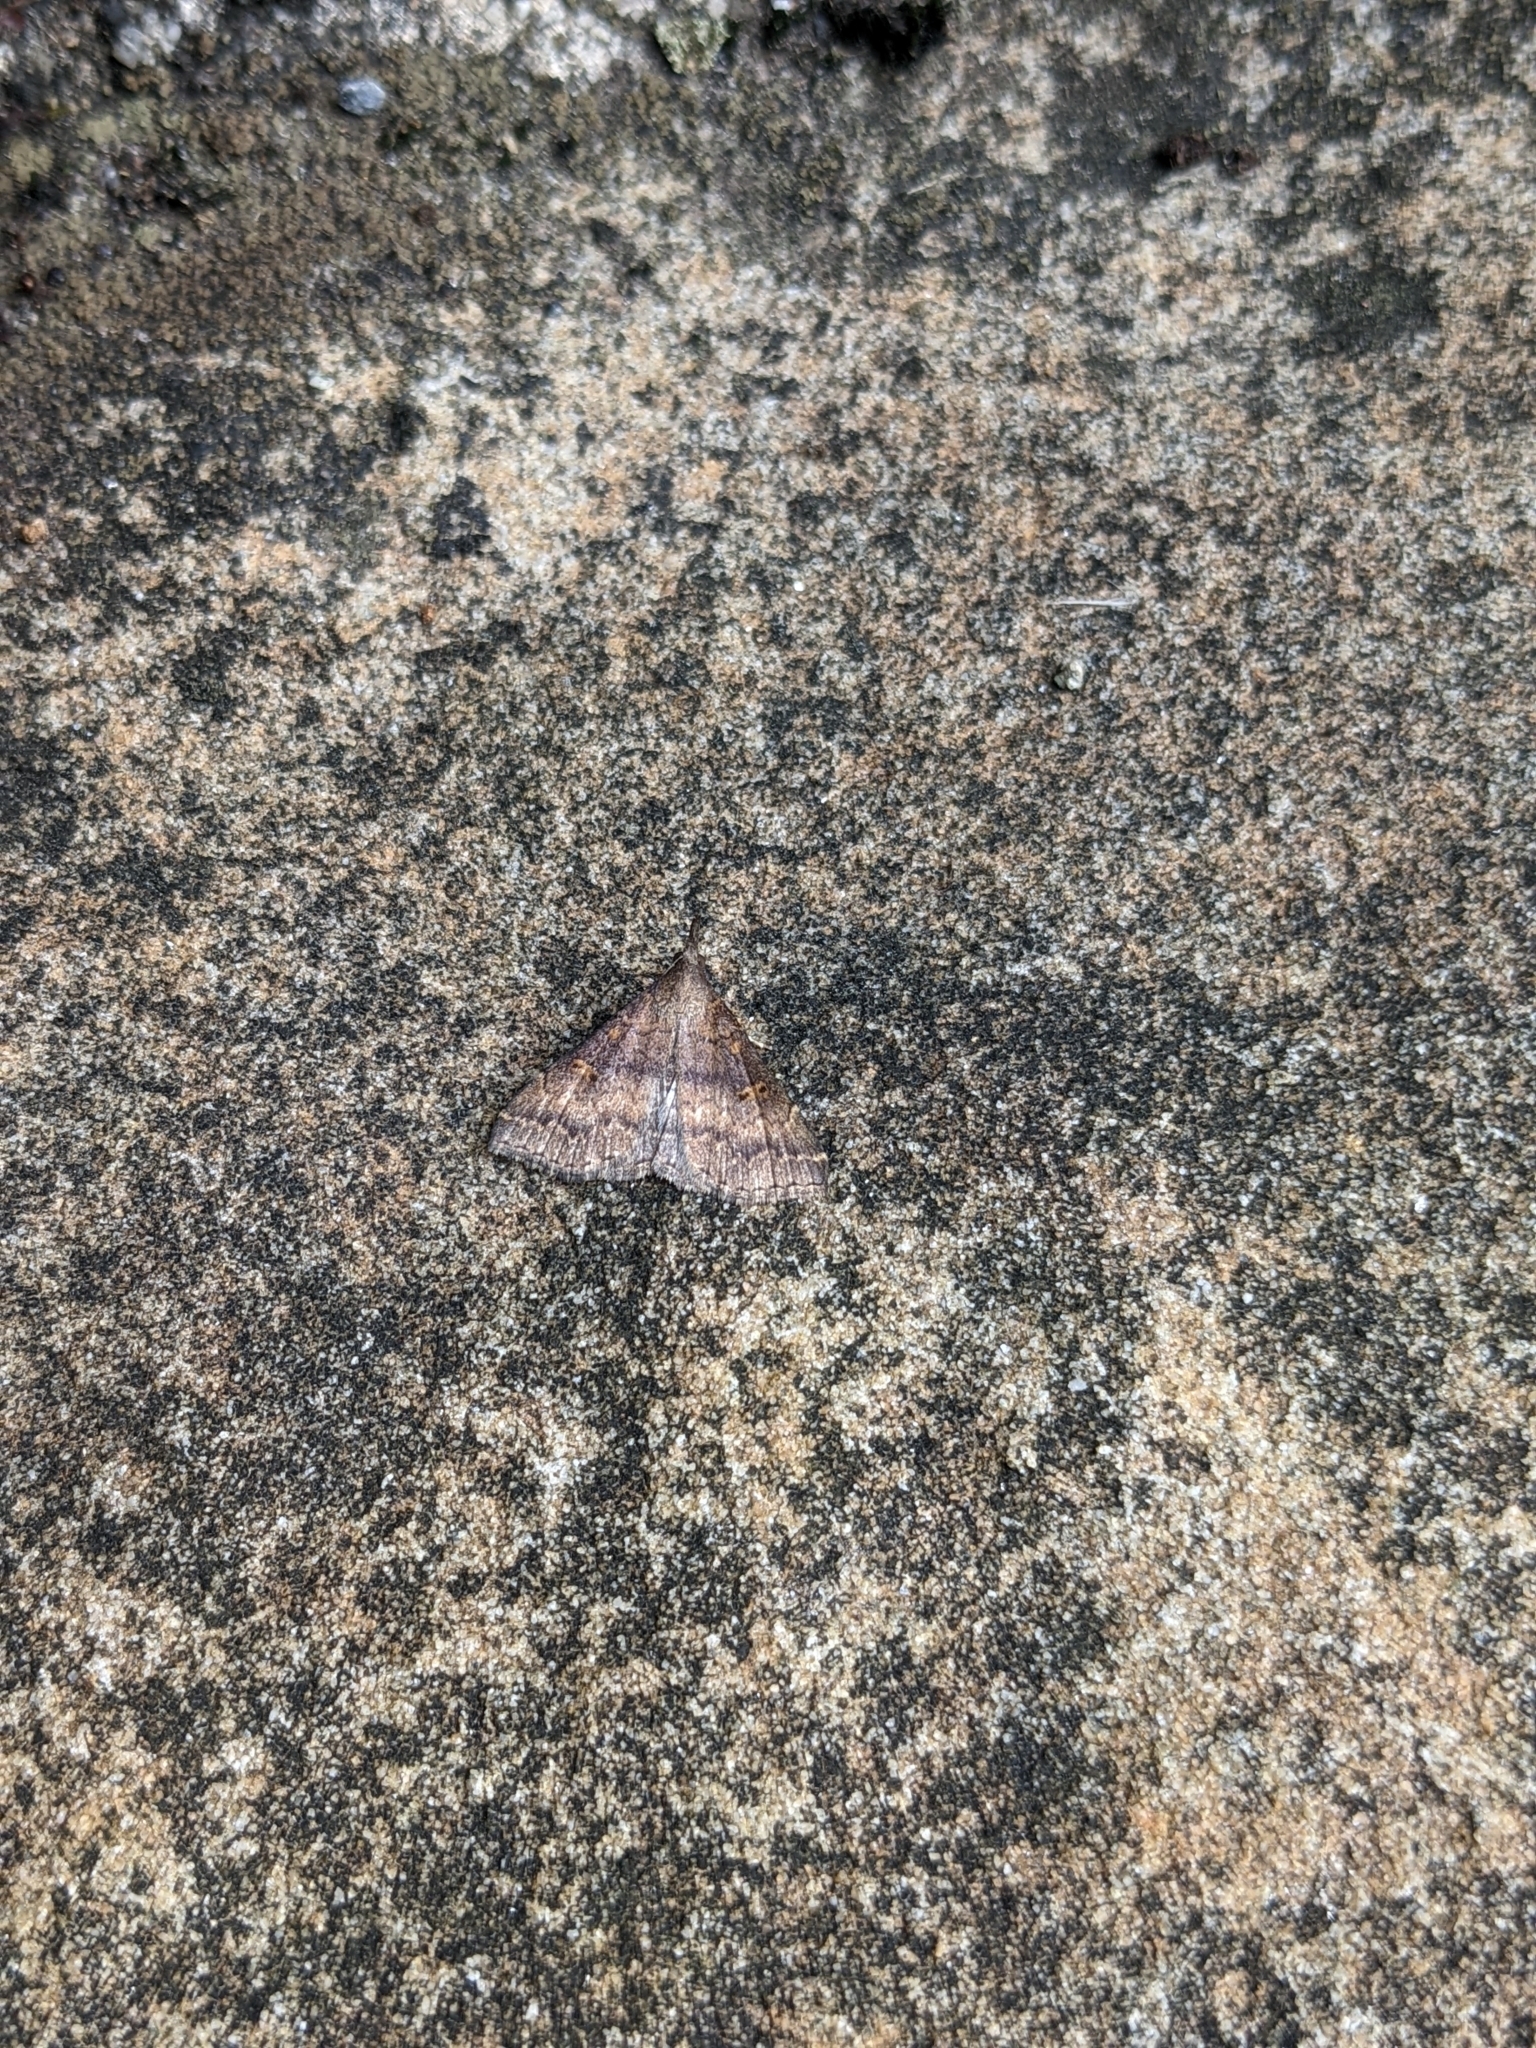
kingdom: Animalia
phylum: Arthropoda
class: Insecta
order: Lepidoptera
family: Erebidae
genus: Renia
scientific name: Renia factiosalis
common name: Sociable renia moth
